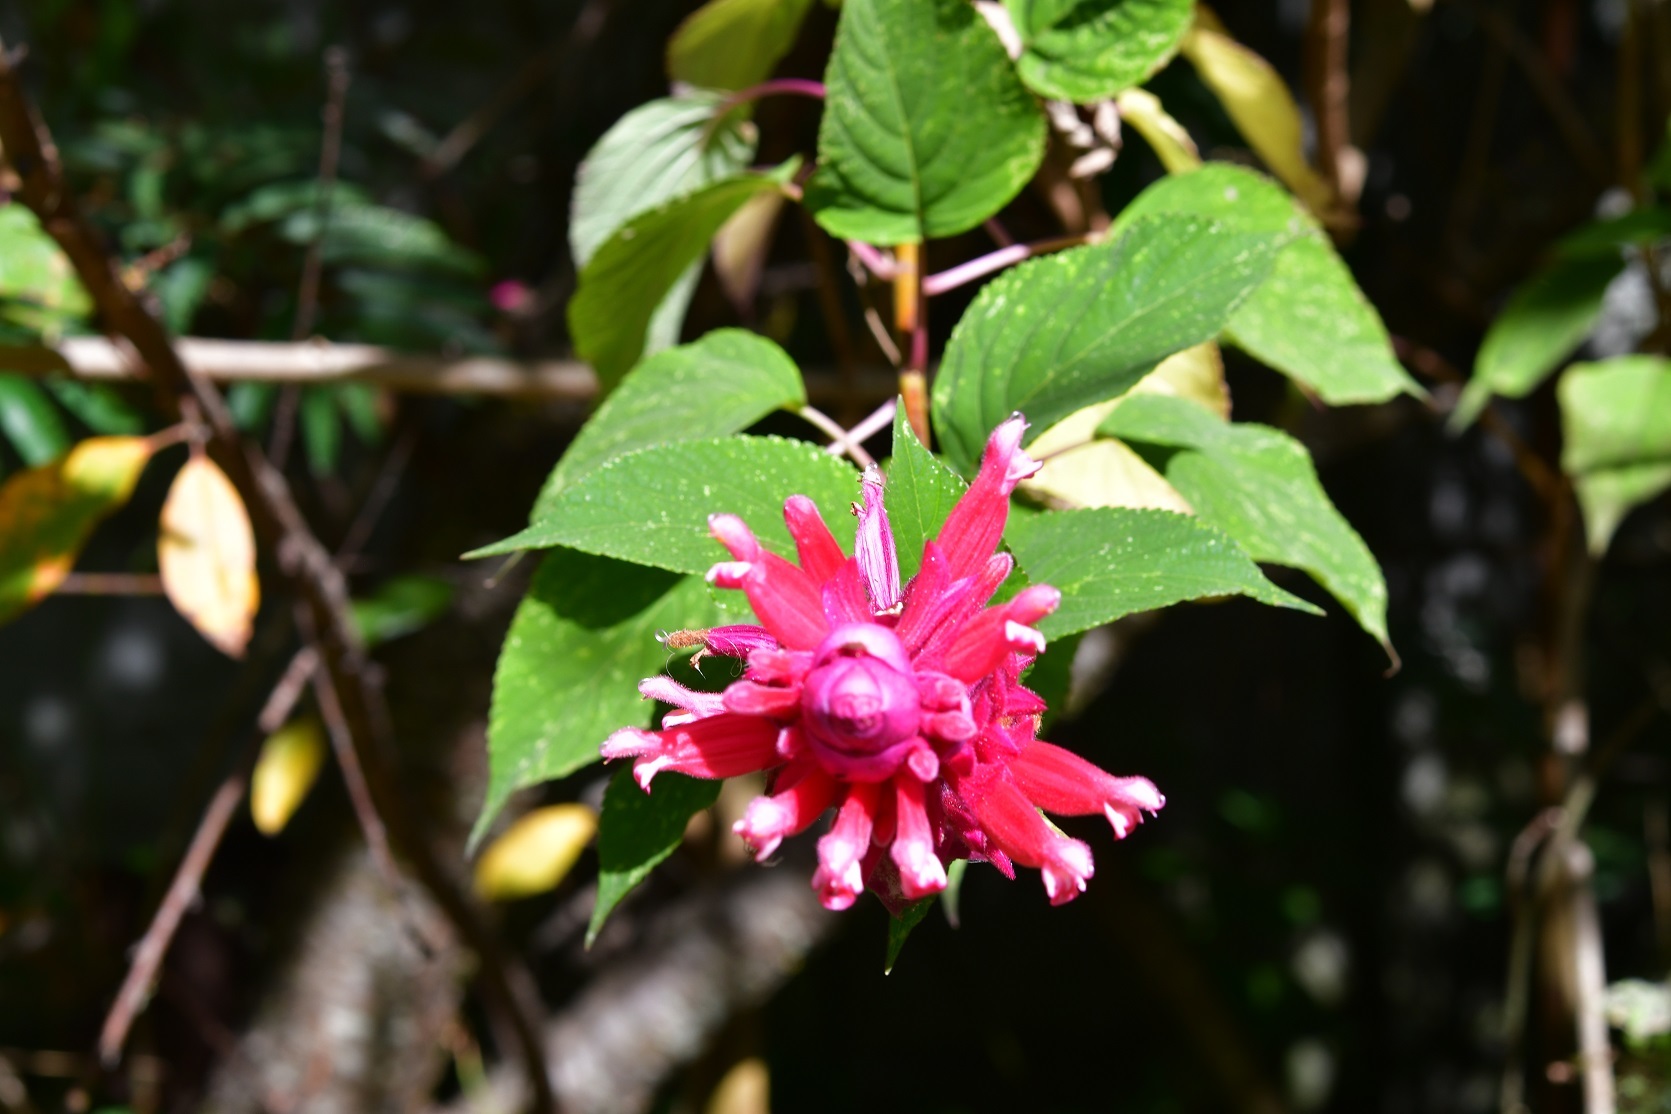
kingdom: Plantae
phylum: Tracheophyta
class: Magnoliopsida
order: Lamiales
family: Lamiaceae
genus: Salvia
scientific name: Salvia wagneriana
